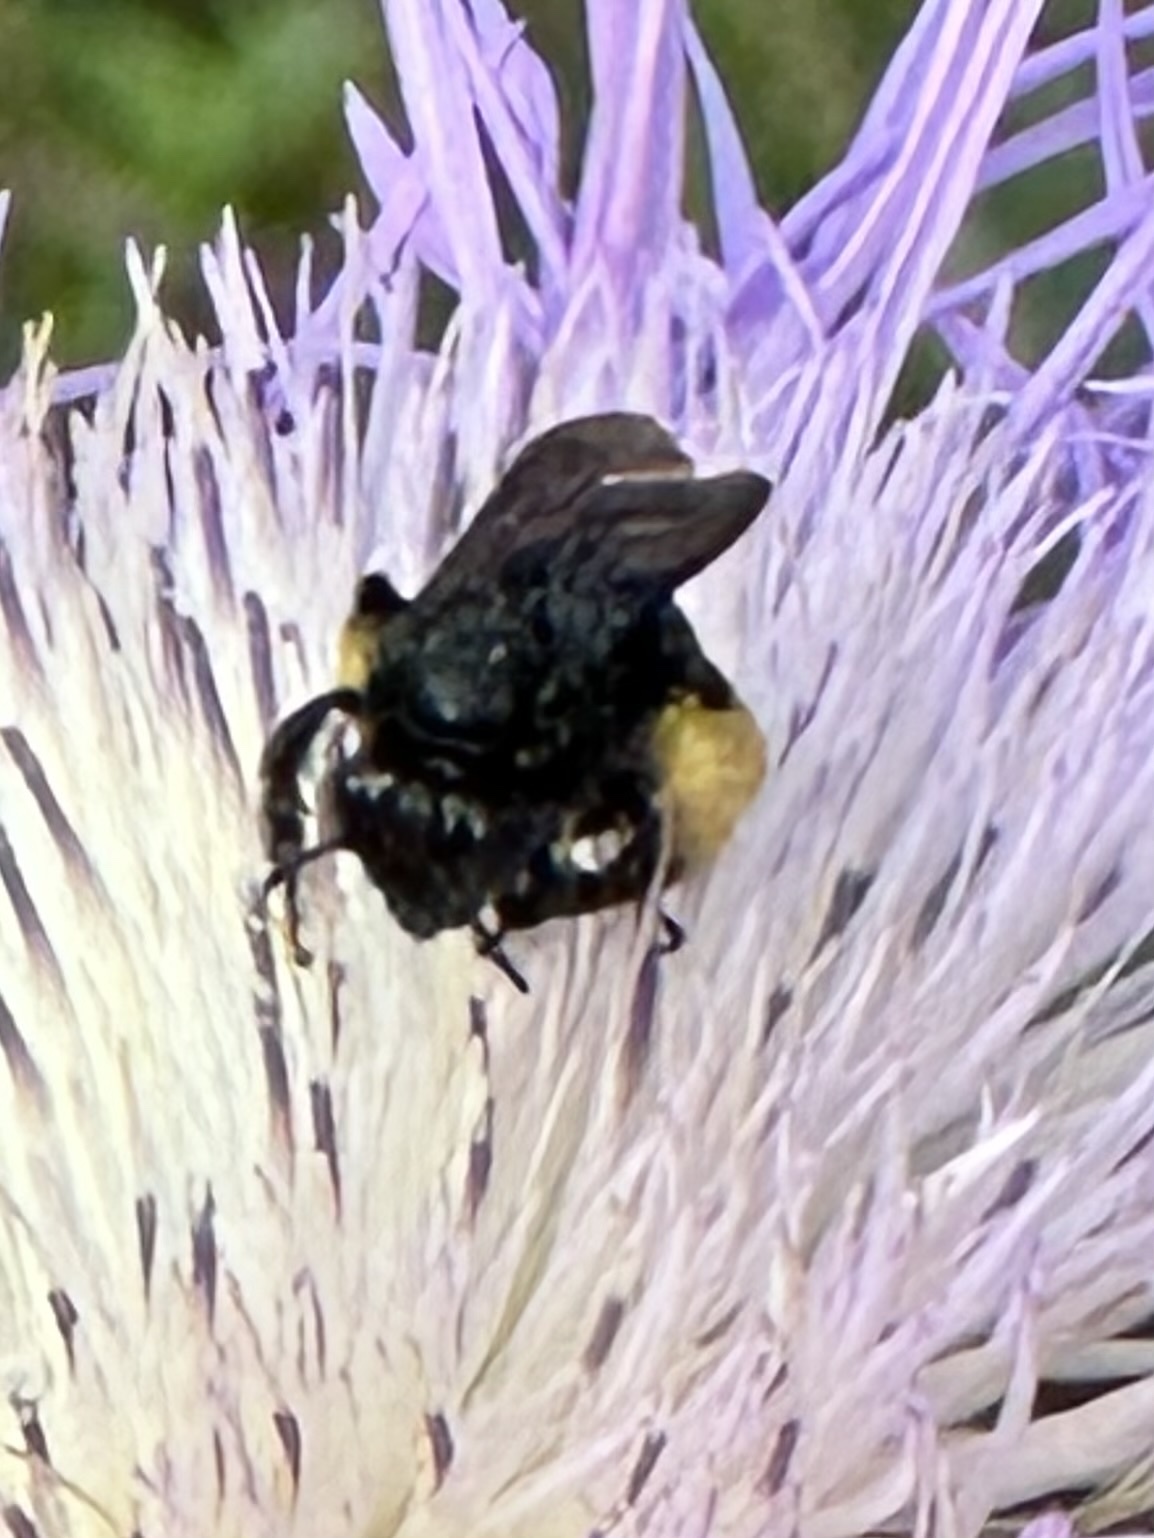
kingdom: Animalia
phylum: Arthropoda
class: Insecta
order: Hymenoptera
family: Apidae
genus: Melissodes
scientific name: Melissodes bimaculatus
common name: Two-spotted long-horned bee
